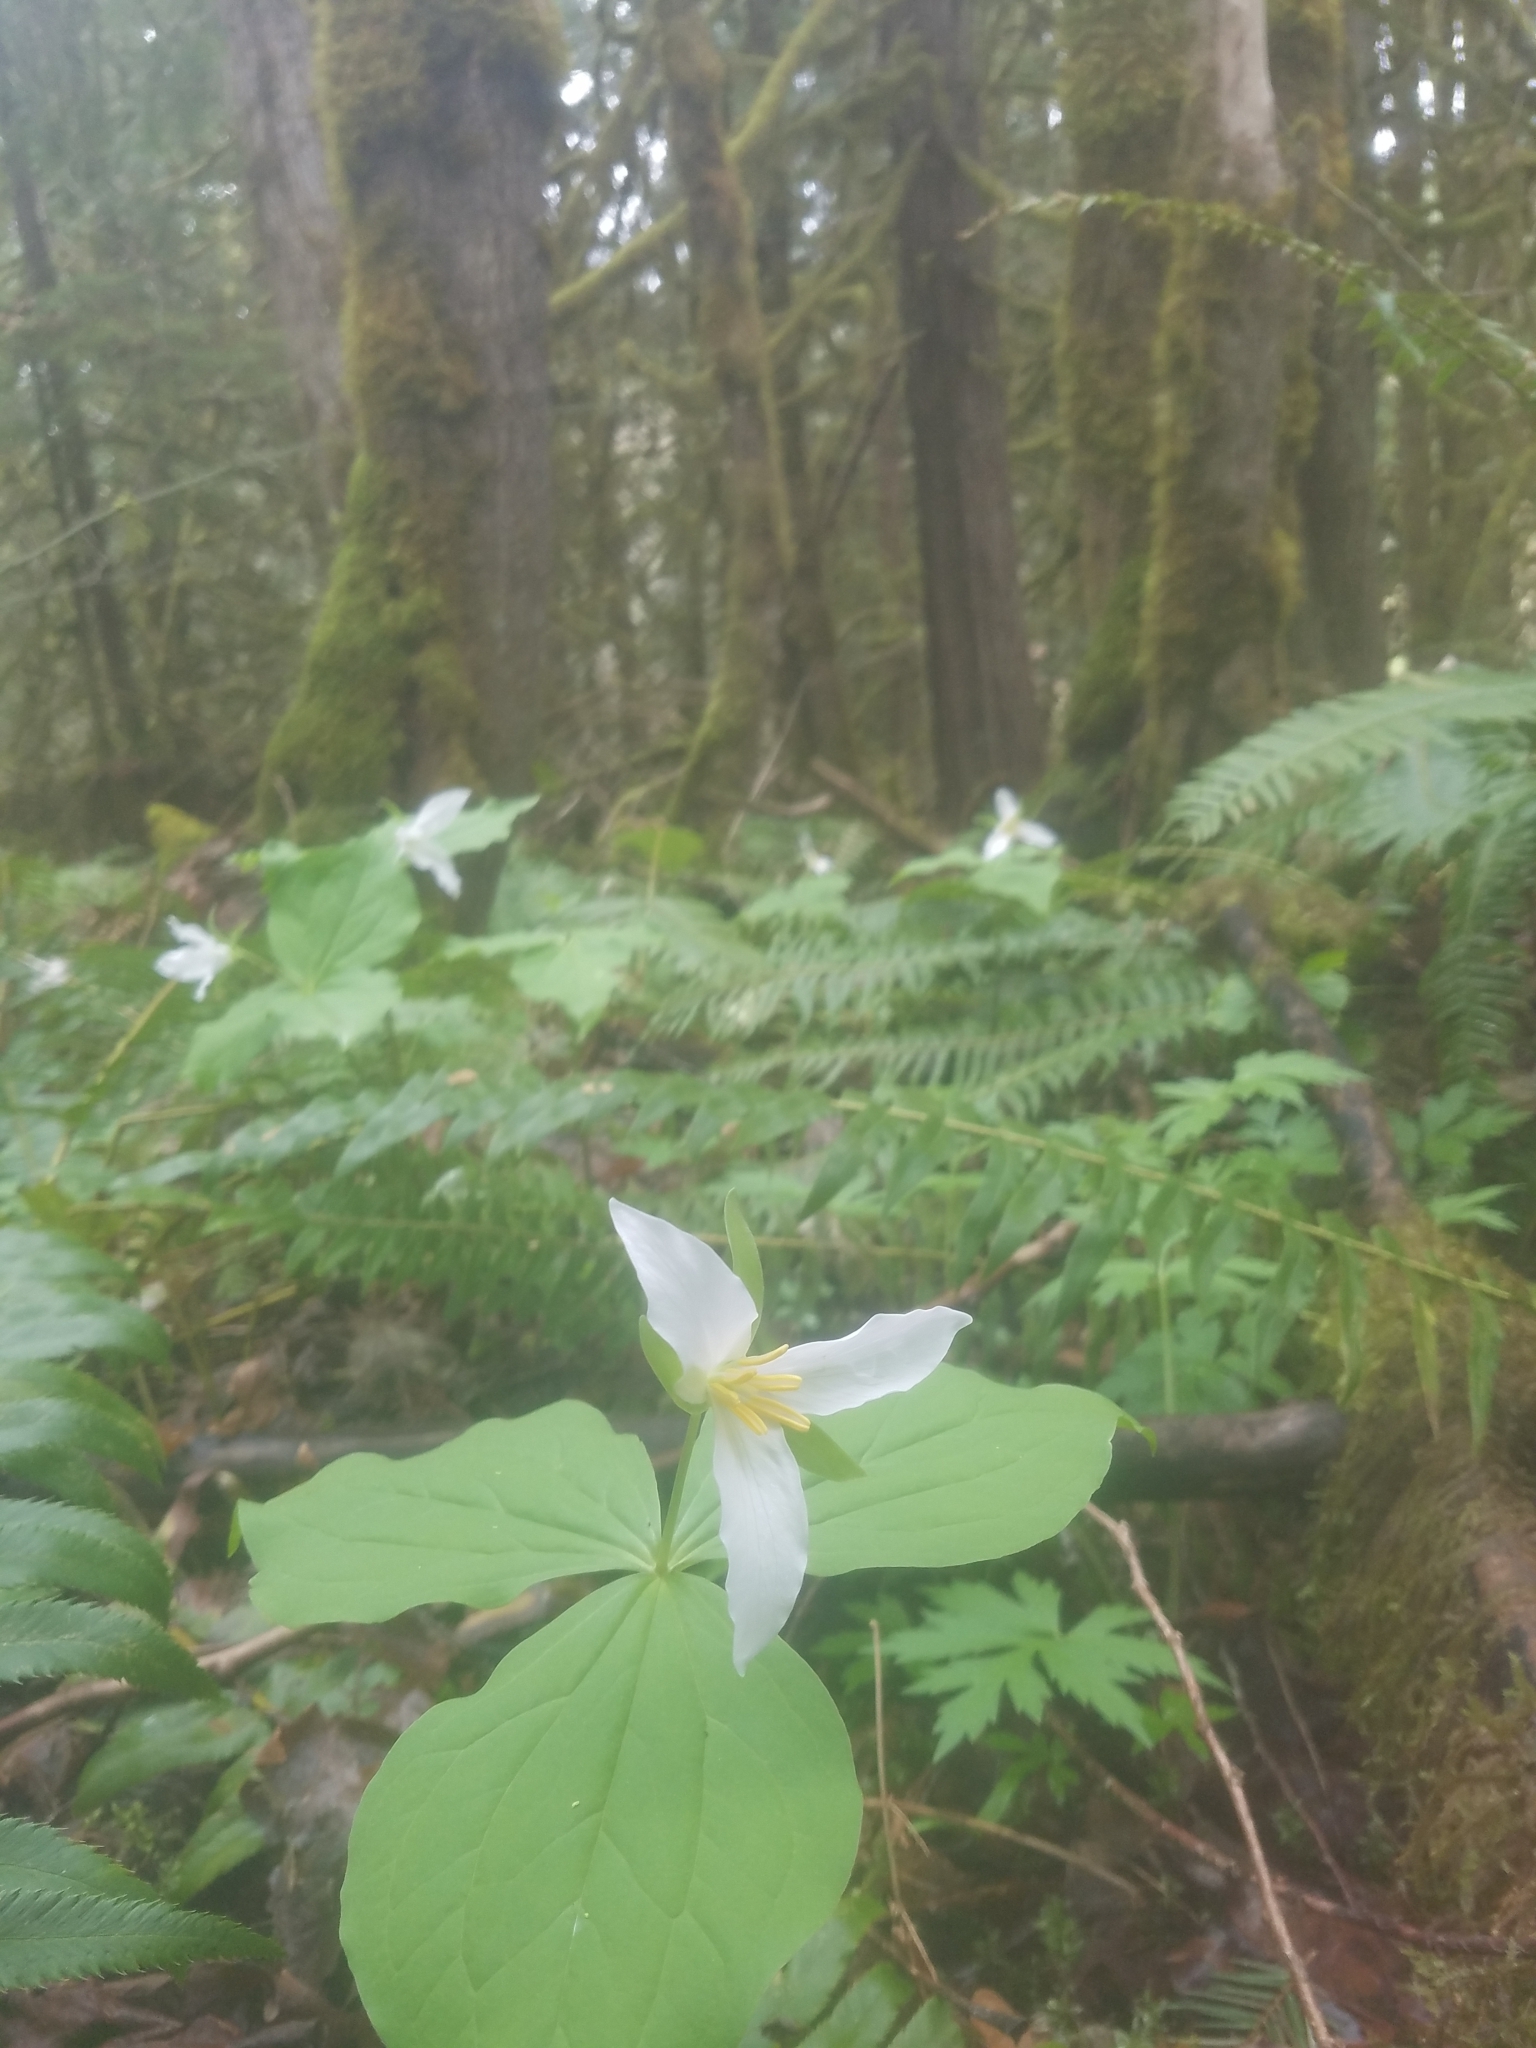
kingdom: Plantae
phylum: Tracheophyta
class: Liliopsida
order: Liliales
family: Melanthiaceae
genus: Trillium
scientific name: Trillium ovatum
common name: Pacific trillium
